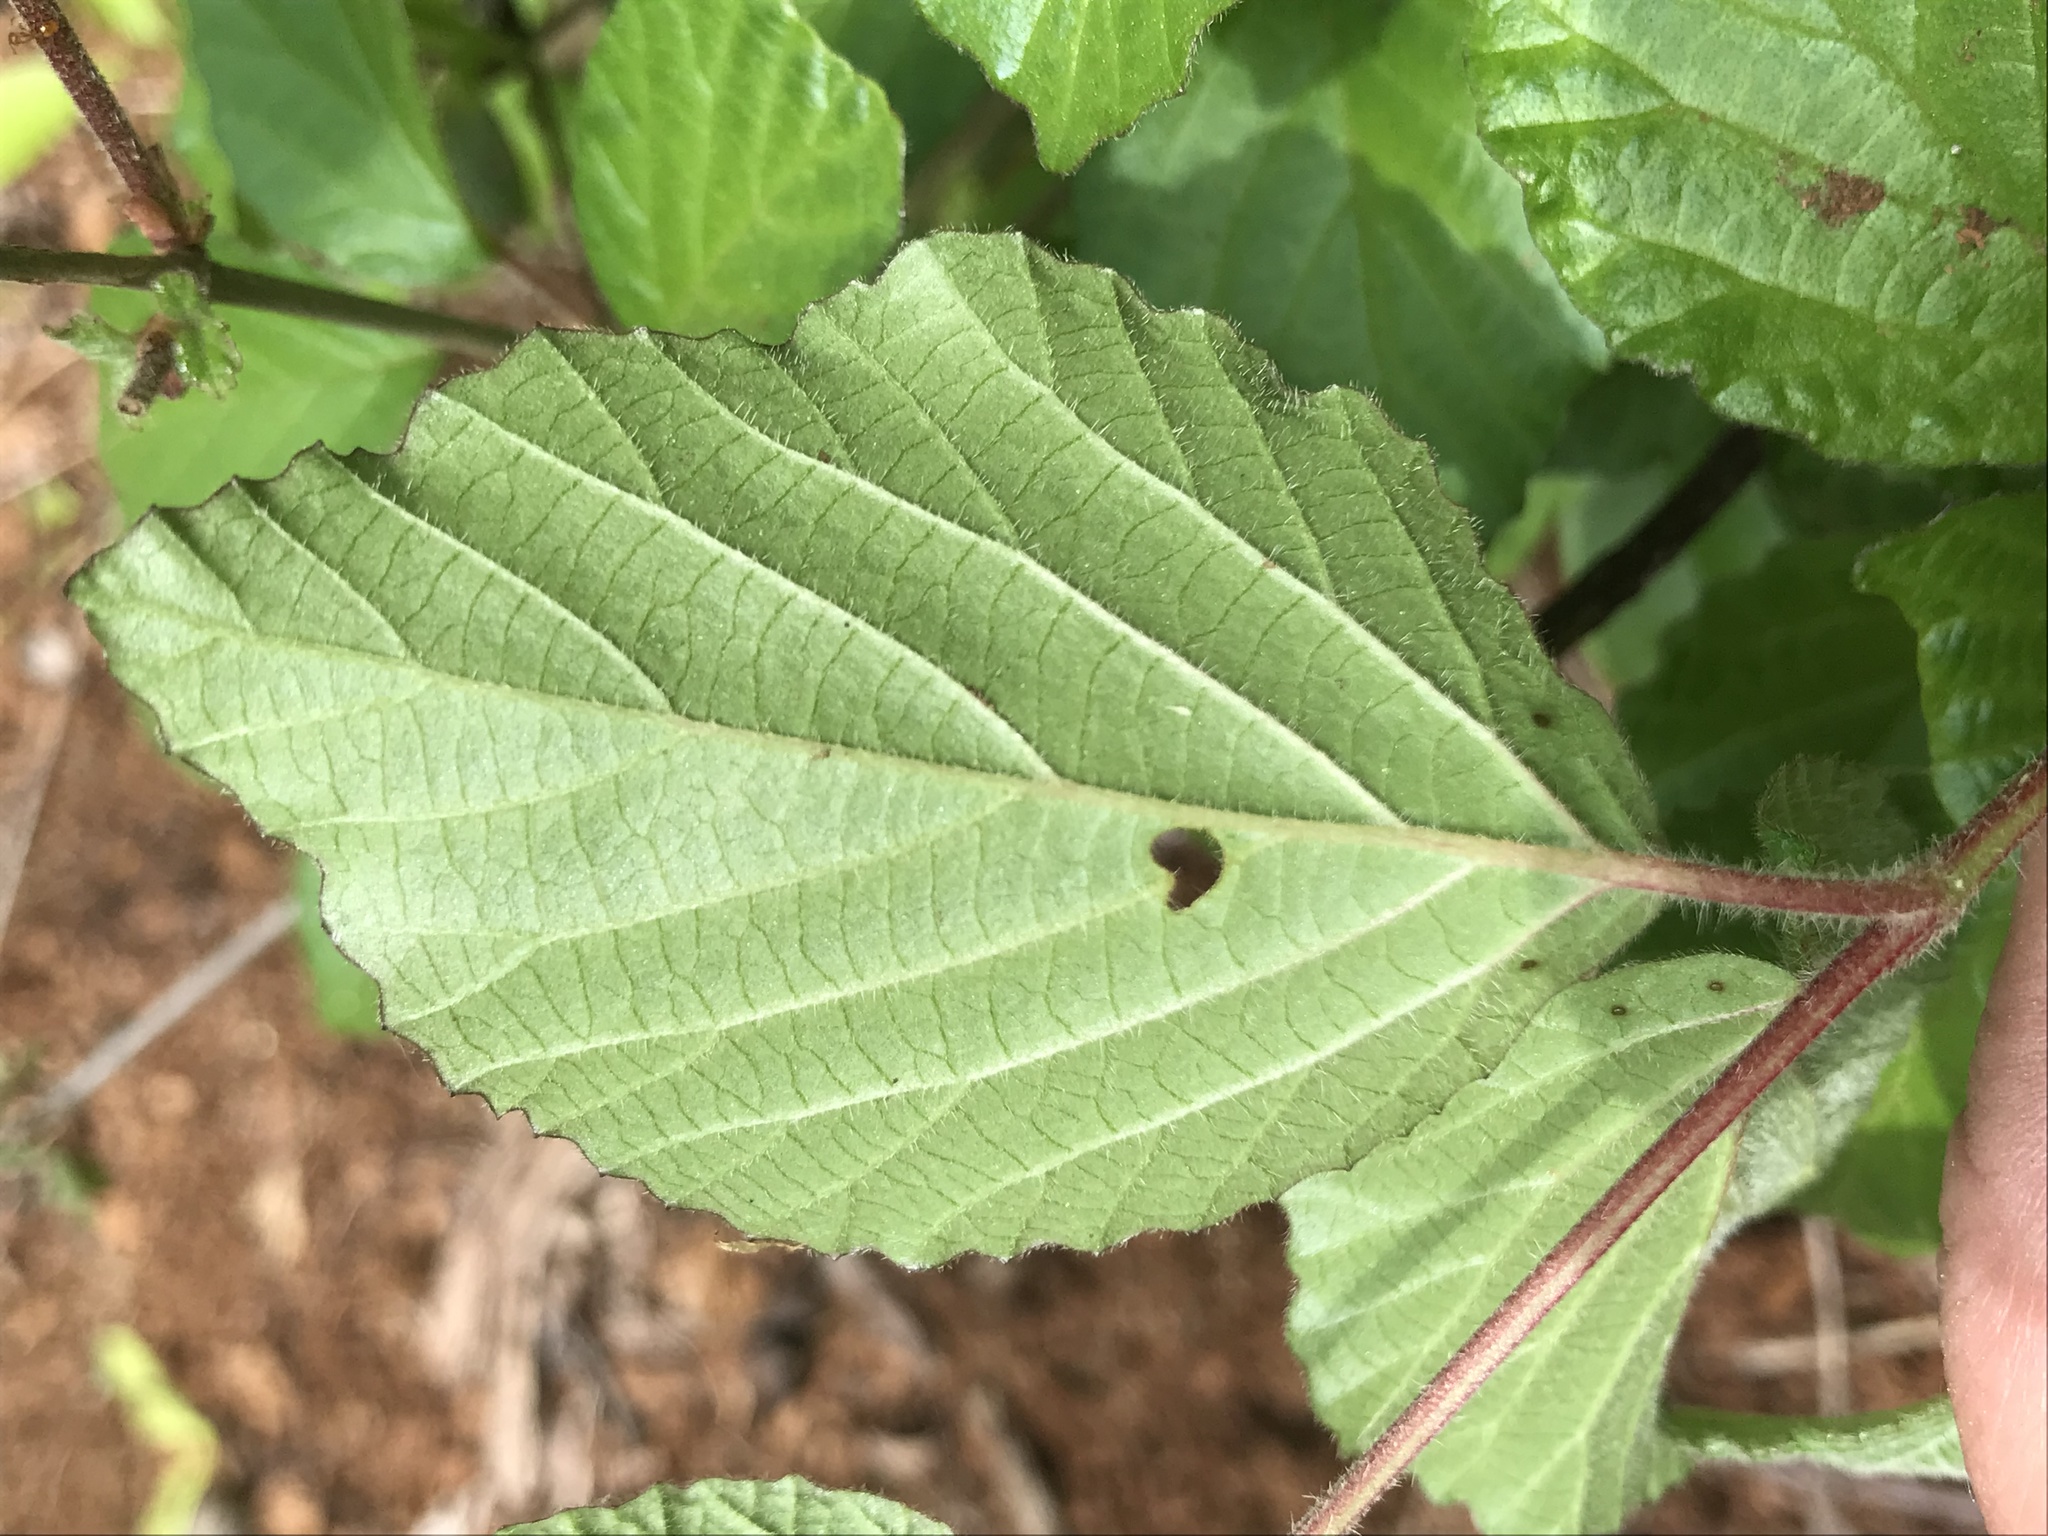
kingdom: Plantae
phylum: Tracheophyta
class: Magnoliopsida
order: Dipsacales
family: Viburnaceae
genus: Viburnum
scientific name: Viburnum dilatatum
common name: Linden arrowwood
